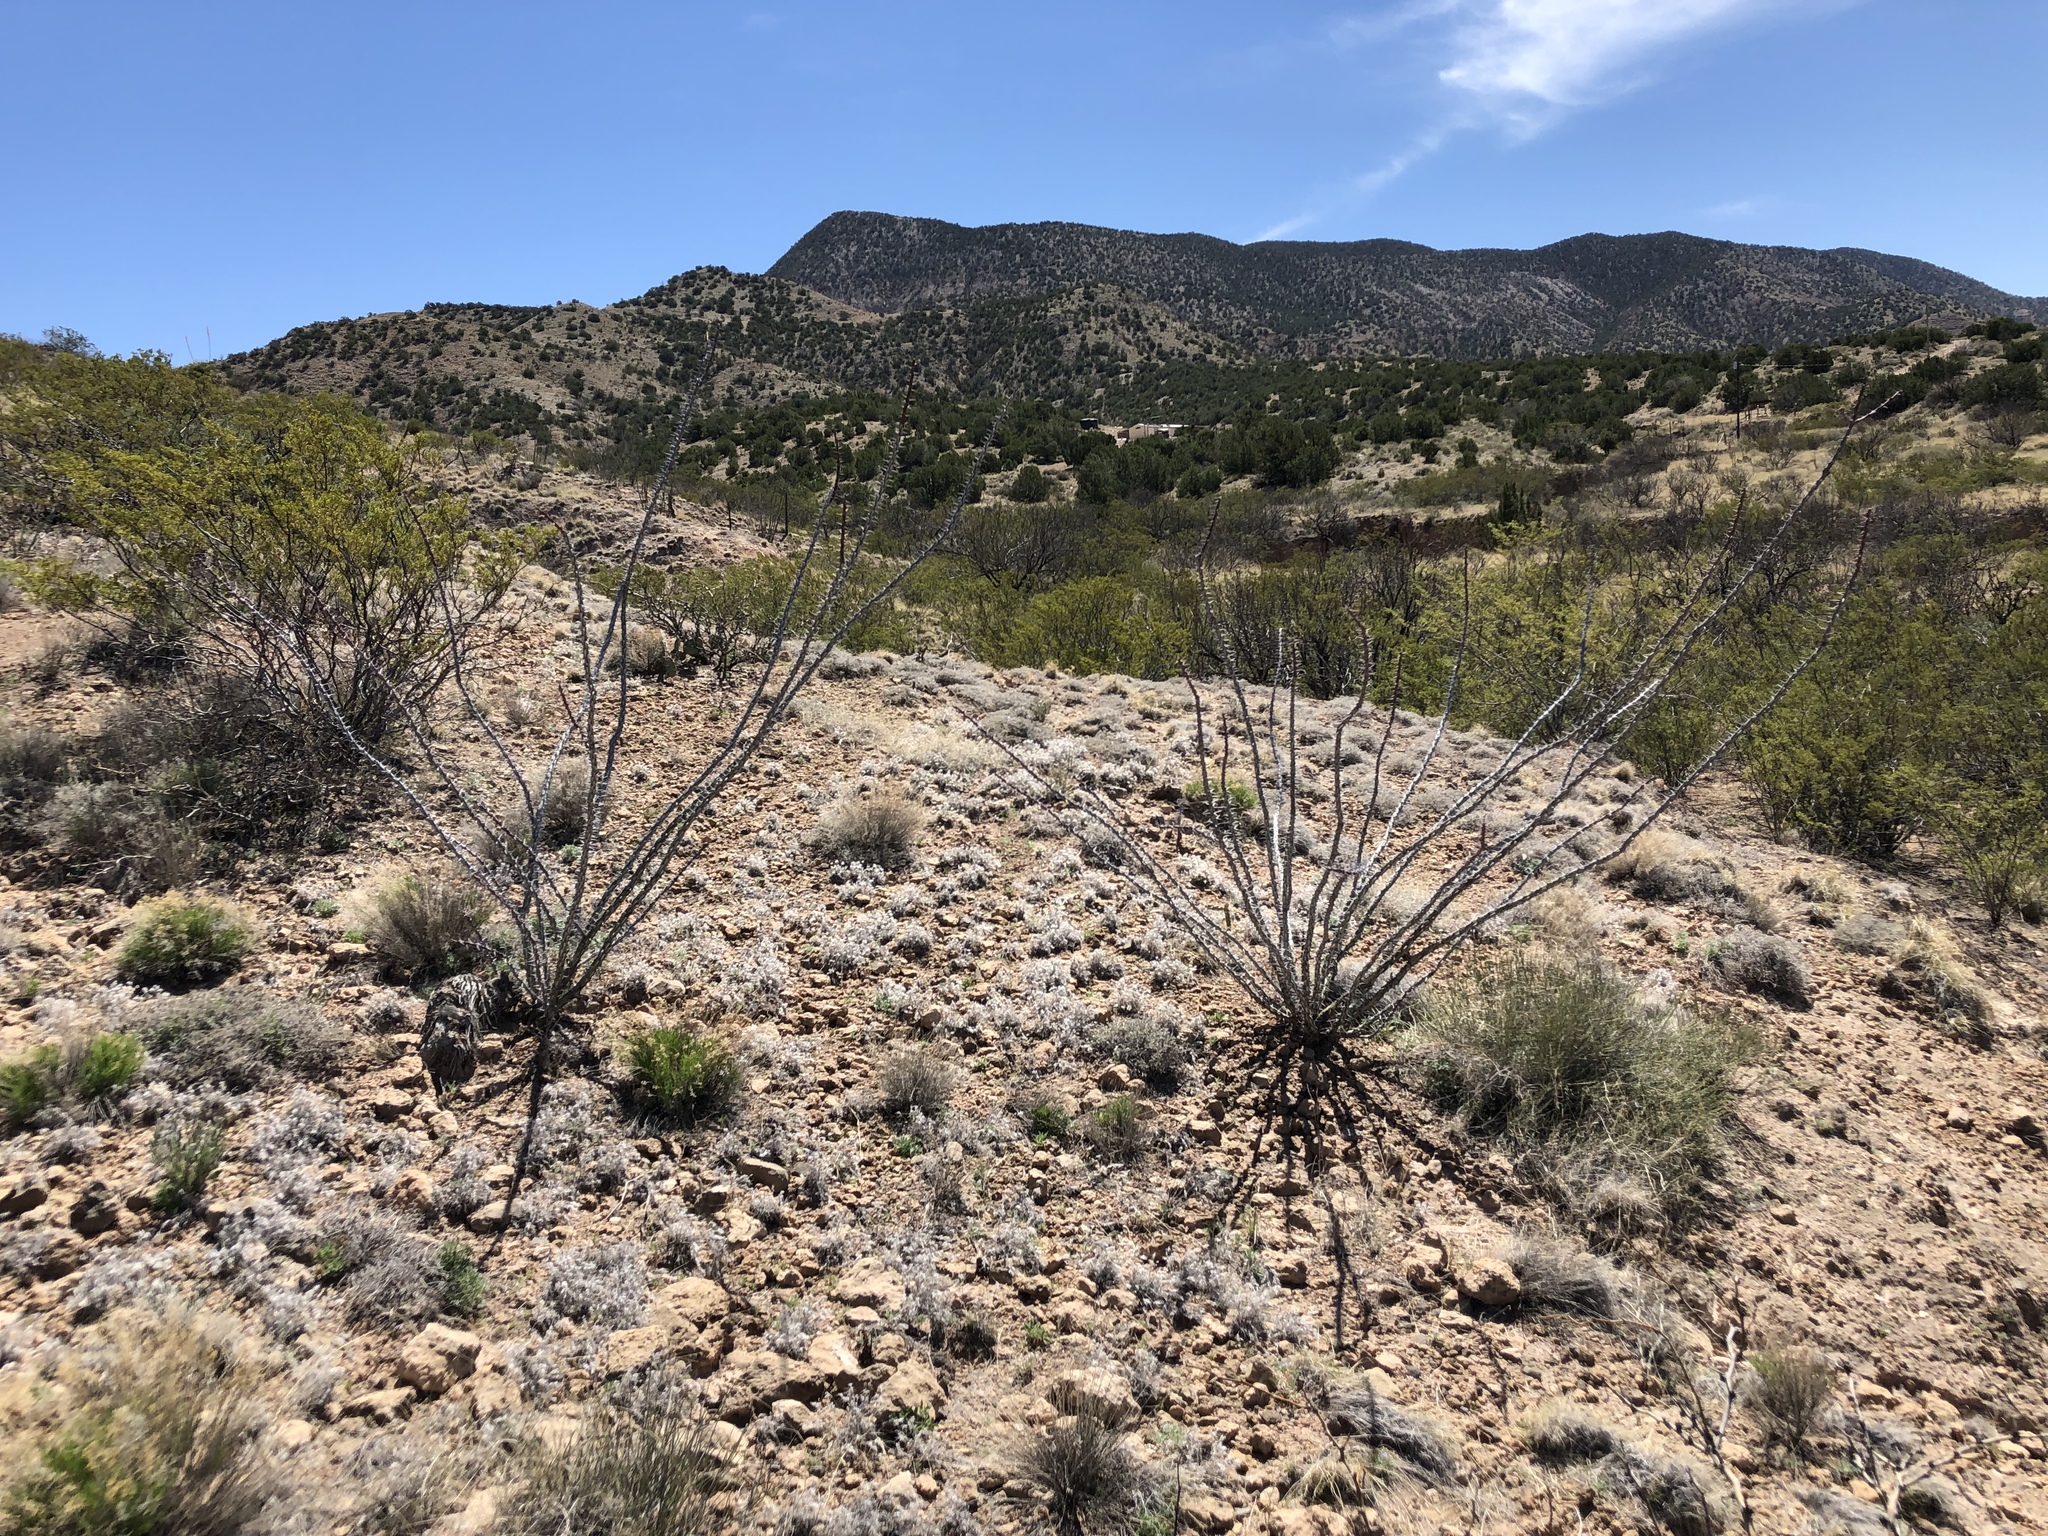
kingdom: Plantae
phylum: Tracheophyta
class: Magnoliopsida
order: Ericales
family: Fouquieriaceae
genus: Fouquieria
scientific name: Fouquieria splendens
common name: Vine-cactus
